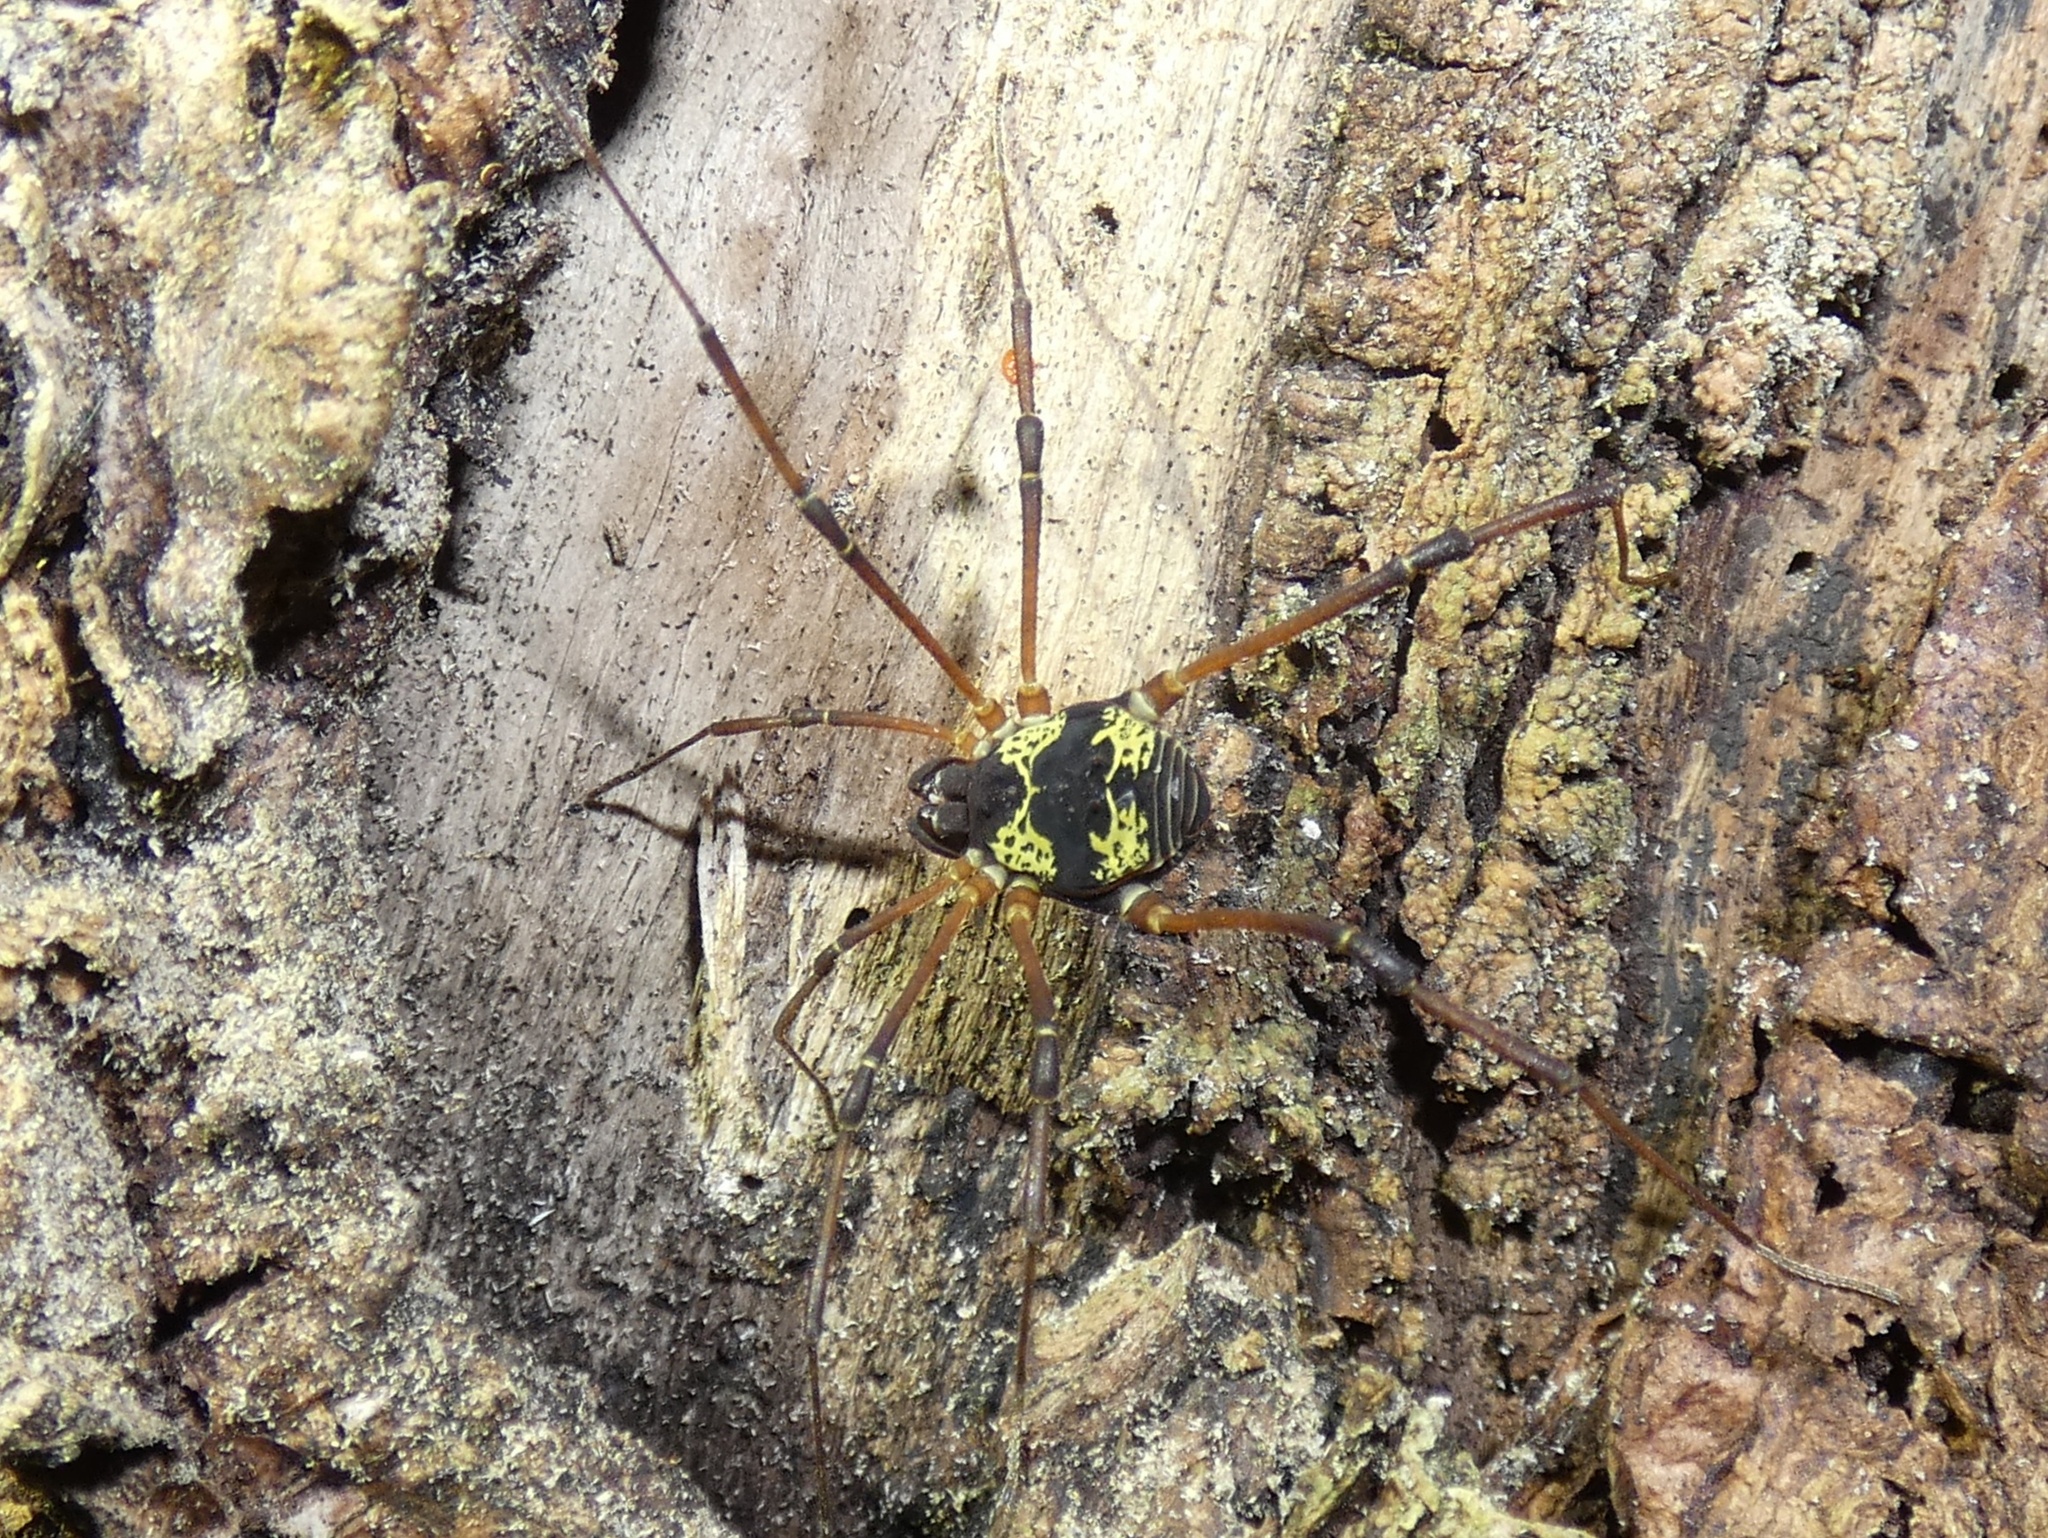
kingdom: Animalia
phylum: Arthropoda
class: Arachnida
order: Opiliones
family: Cosmetidae
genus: Cynorta
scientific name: Cynorta casita
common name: Harvestmen
